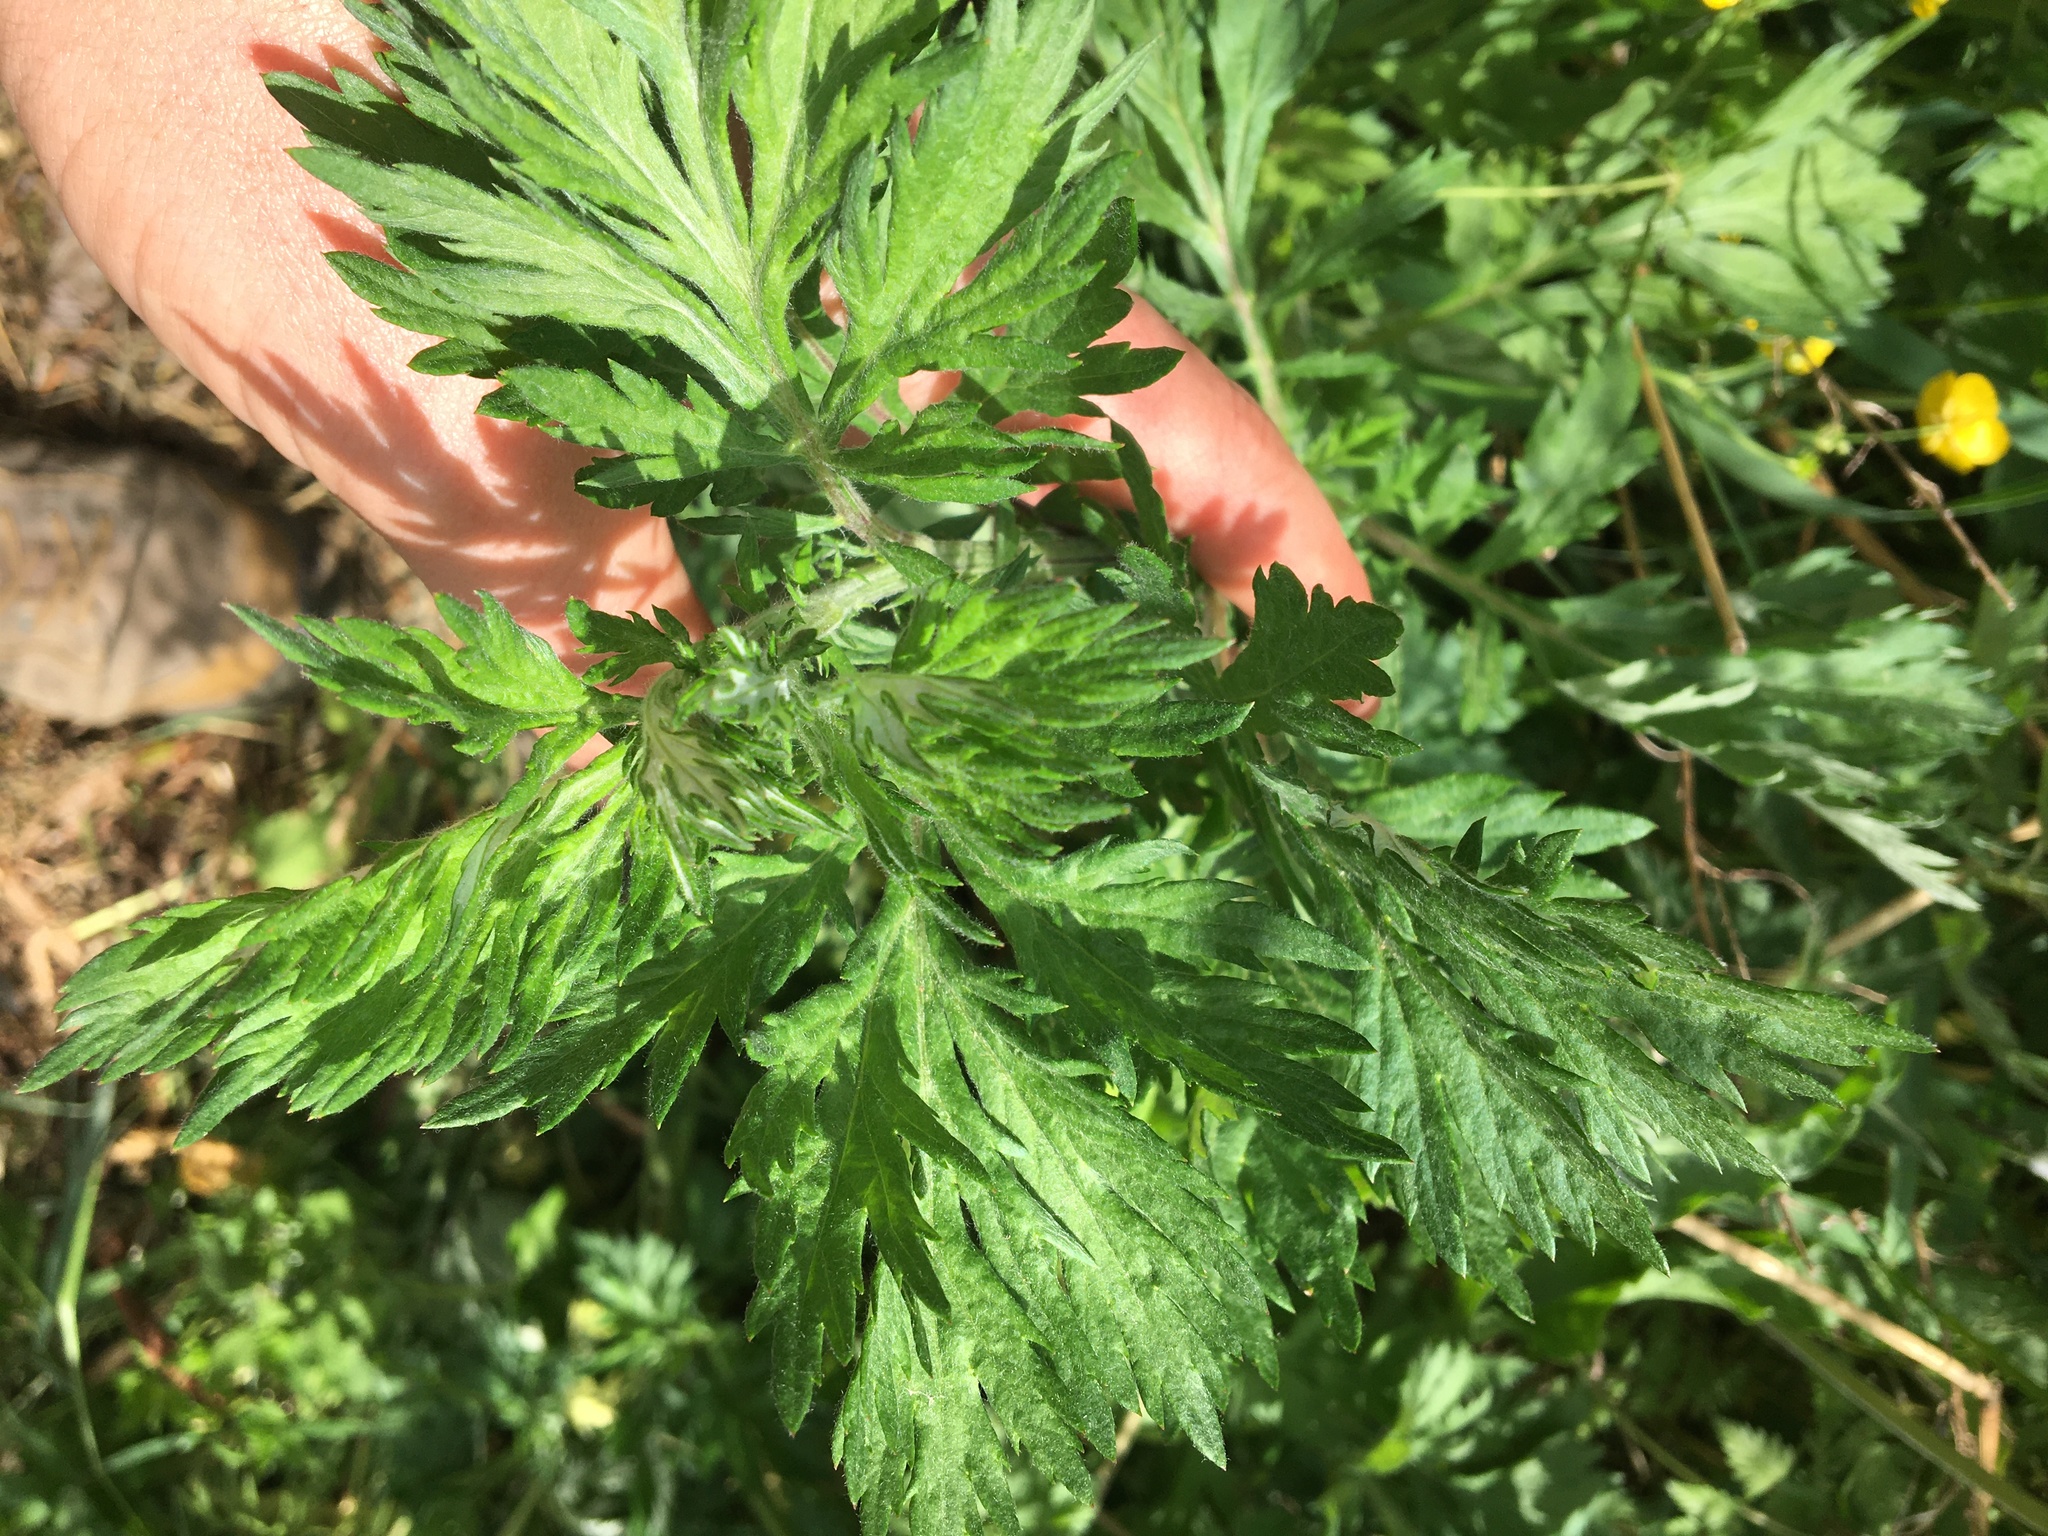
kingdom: Plantae
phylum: Tracheophyta
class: Magnoliopsida
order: Asterales
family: Asteraceae
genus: Artemisia
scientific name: Artemisia vulgaris
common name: Mugwort
